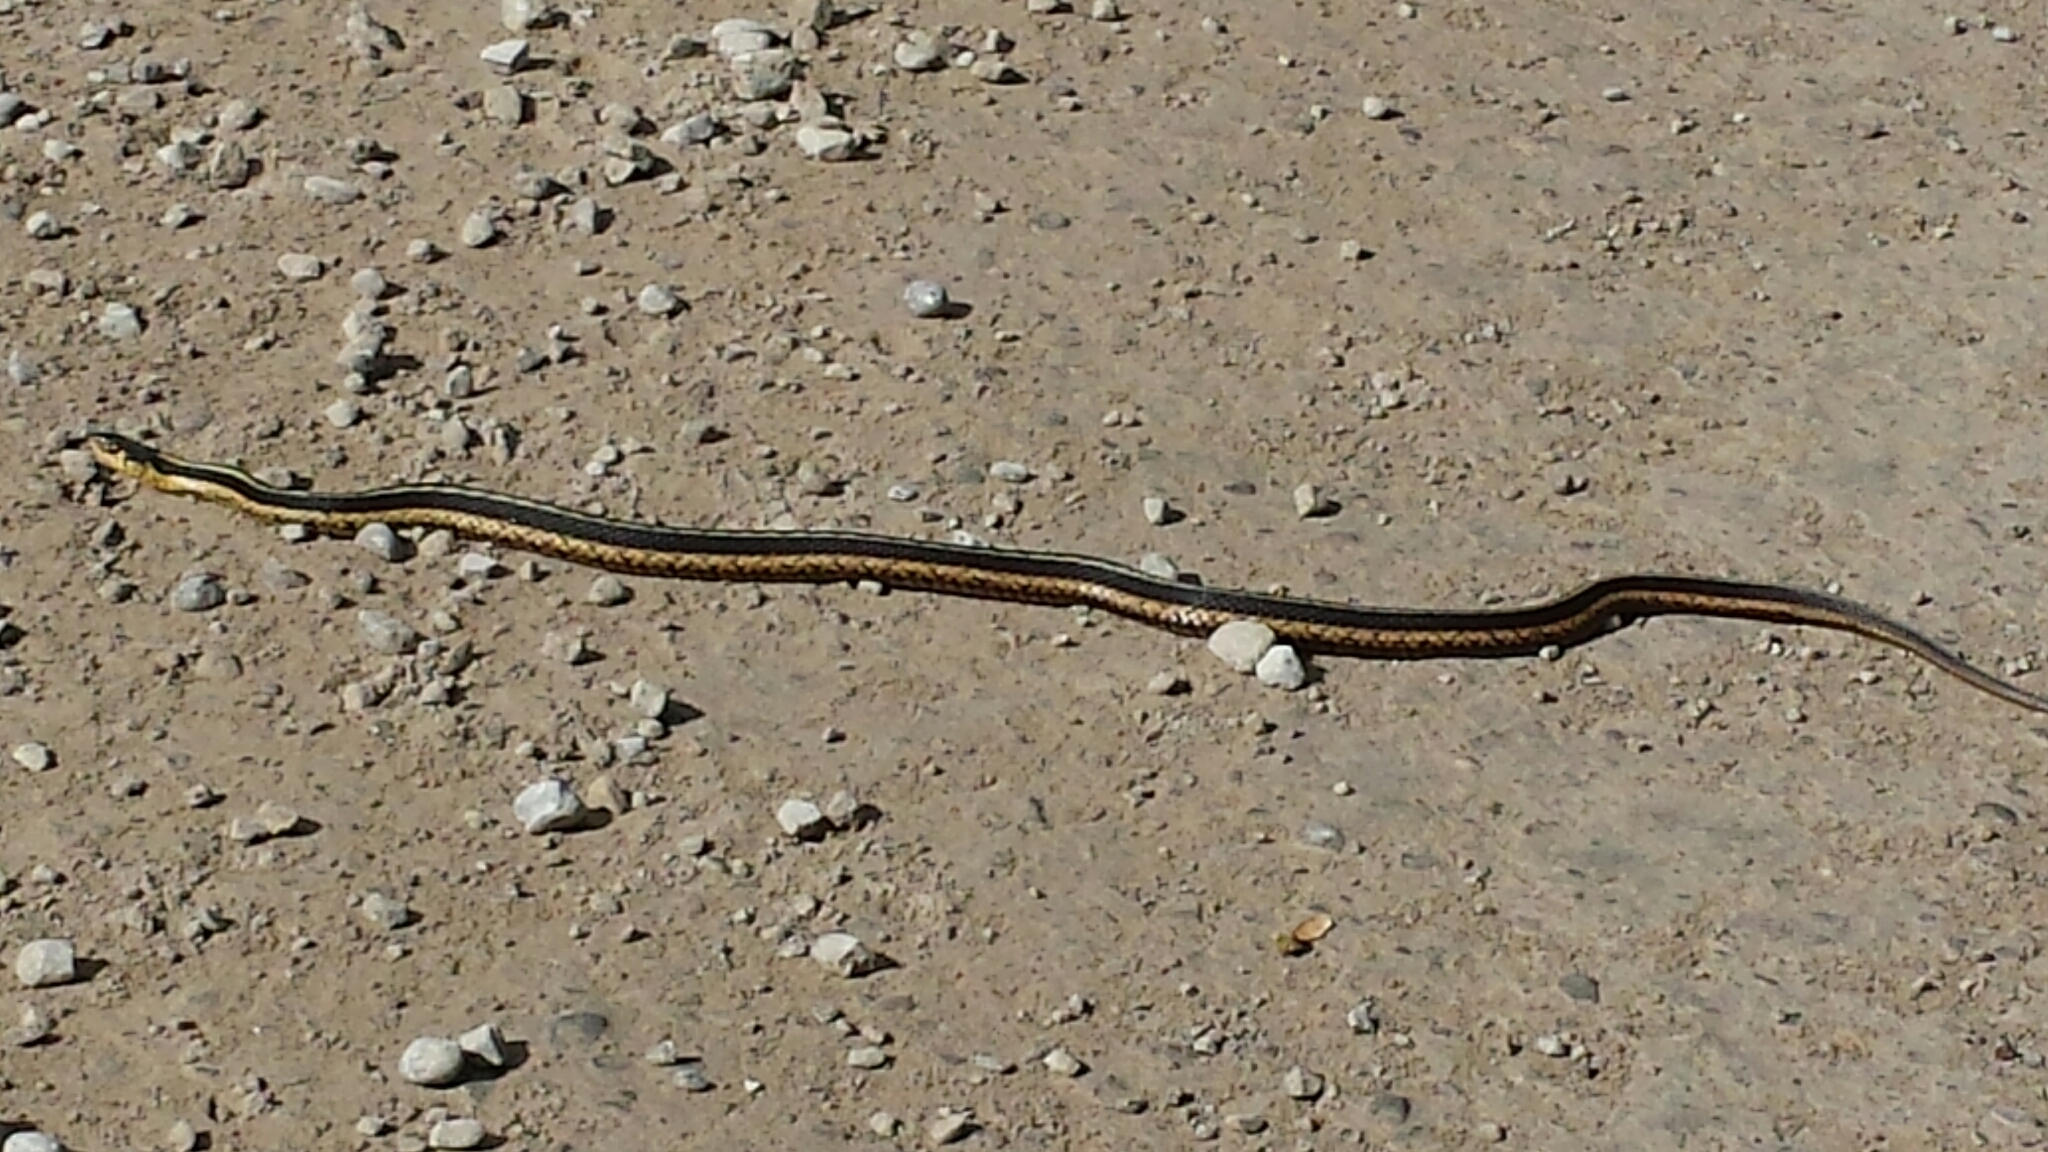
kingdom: Animalia
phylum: Chordata
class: Squamata
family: Colubridae
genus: Thamnophis
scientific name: Thamnophis sirtalis
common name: Common garter snake
